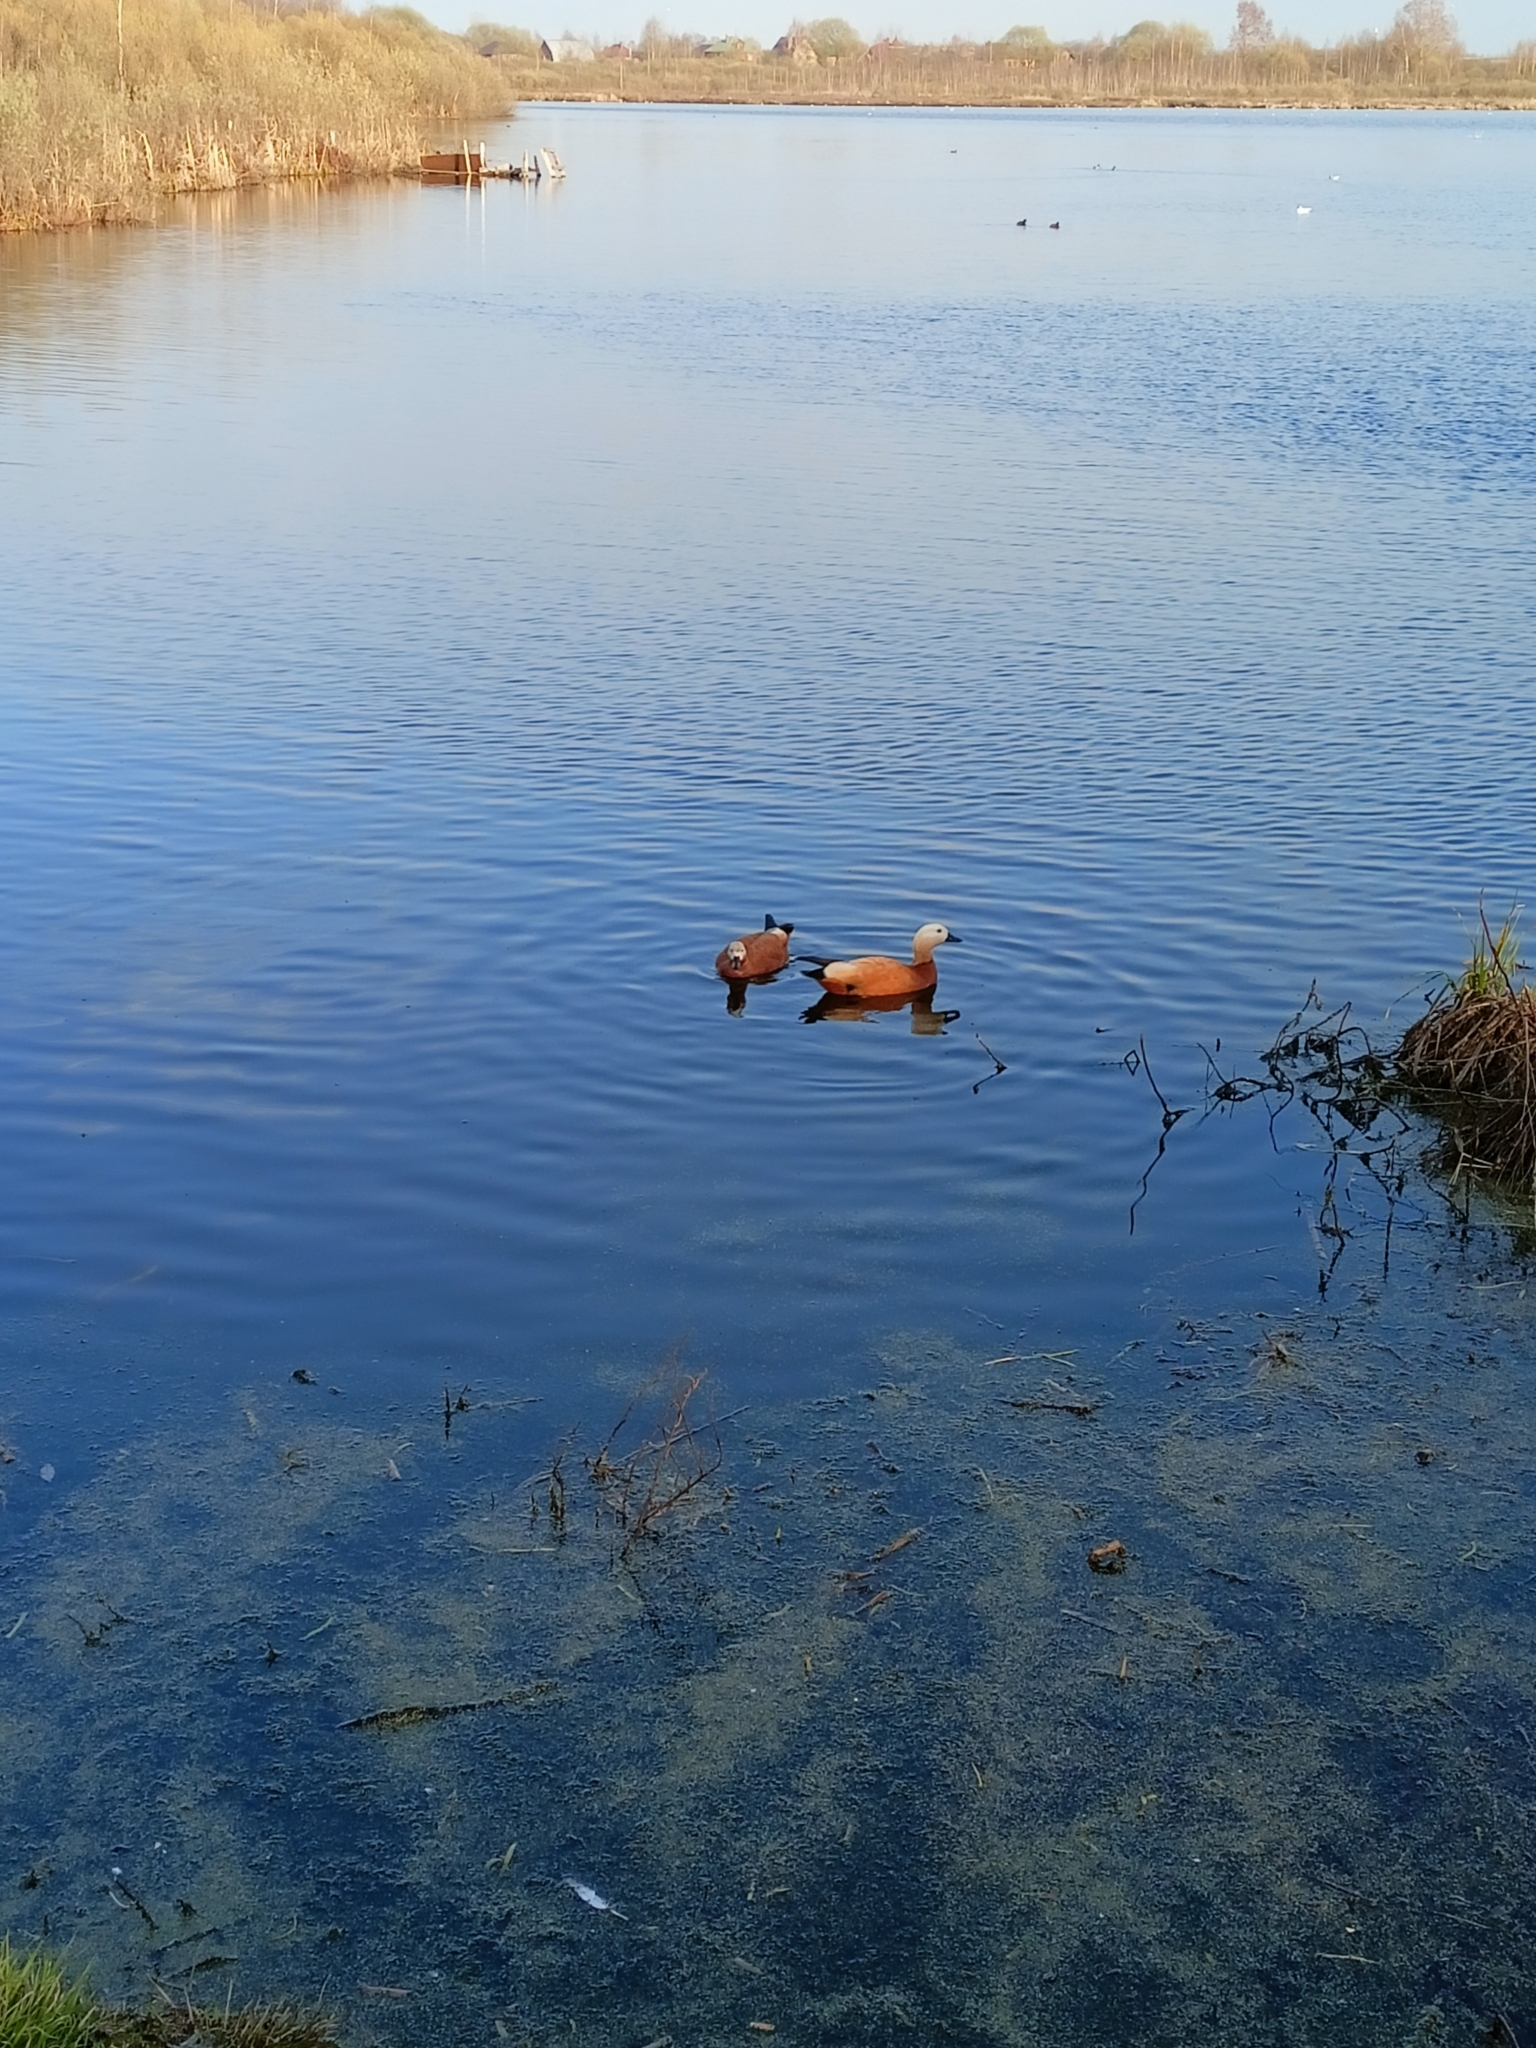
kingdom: Animalia
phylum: Chordata
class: Aves
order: Anseriformes
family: Anatidae
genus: Tadorna
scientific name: Tadorna ferruginea
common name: Ruddy shelduck
